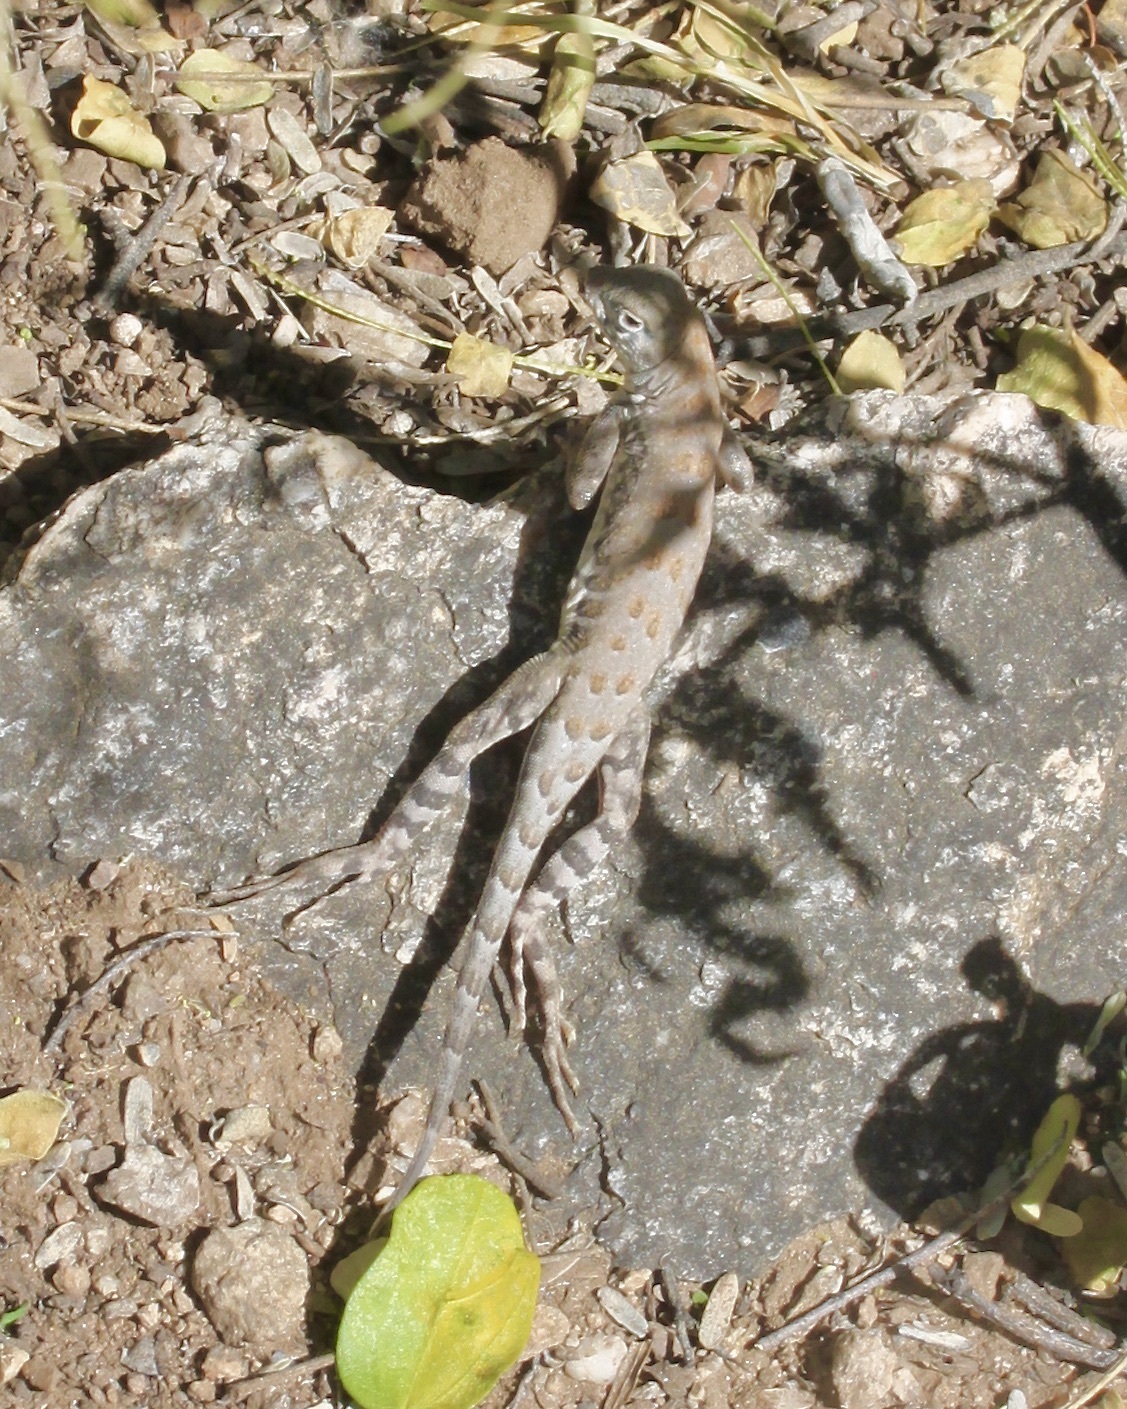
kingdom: Animalia
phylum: Chordata
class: Squamata
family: Phrynosomatidae
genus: Cophosaurus
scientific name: Cophosaurus texanus
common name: Greater earless lizard
